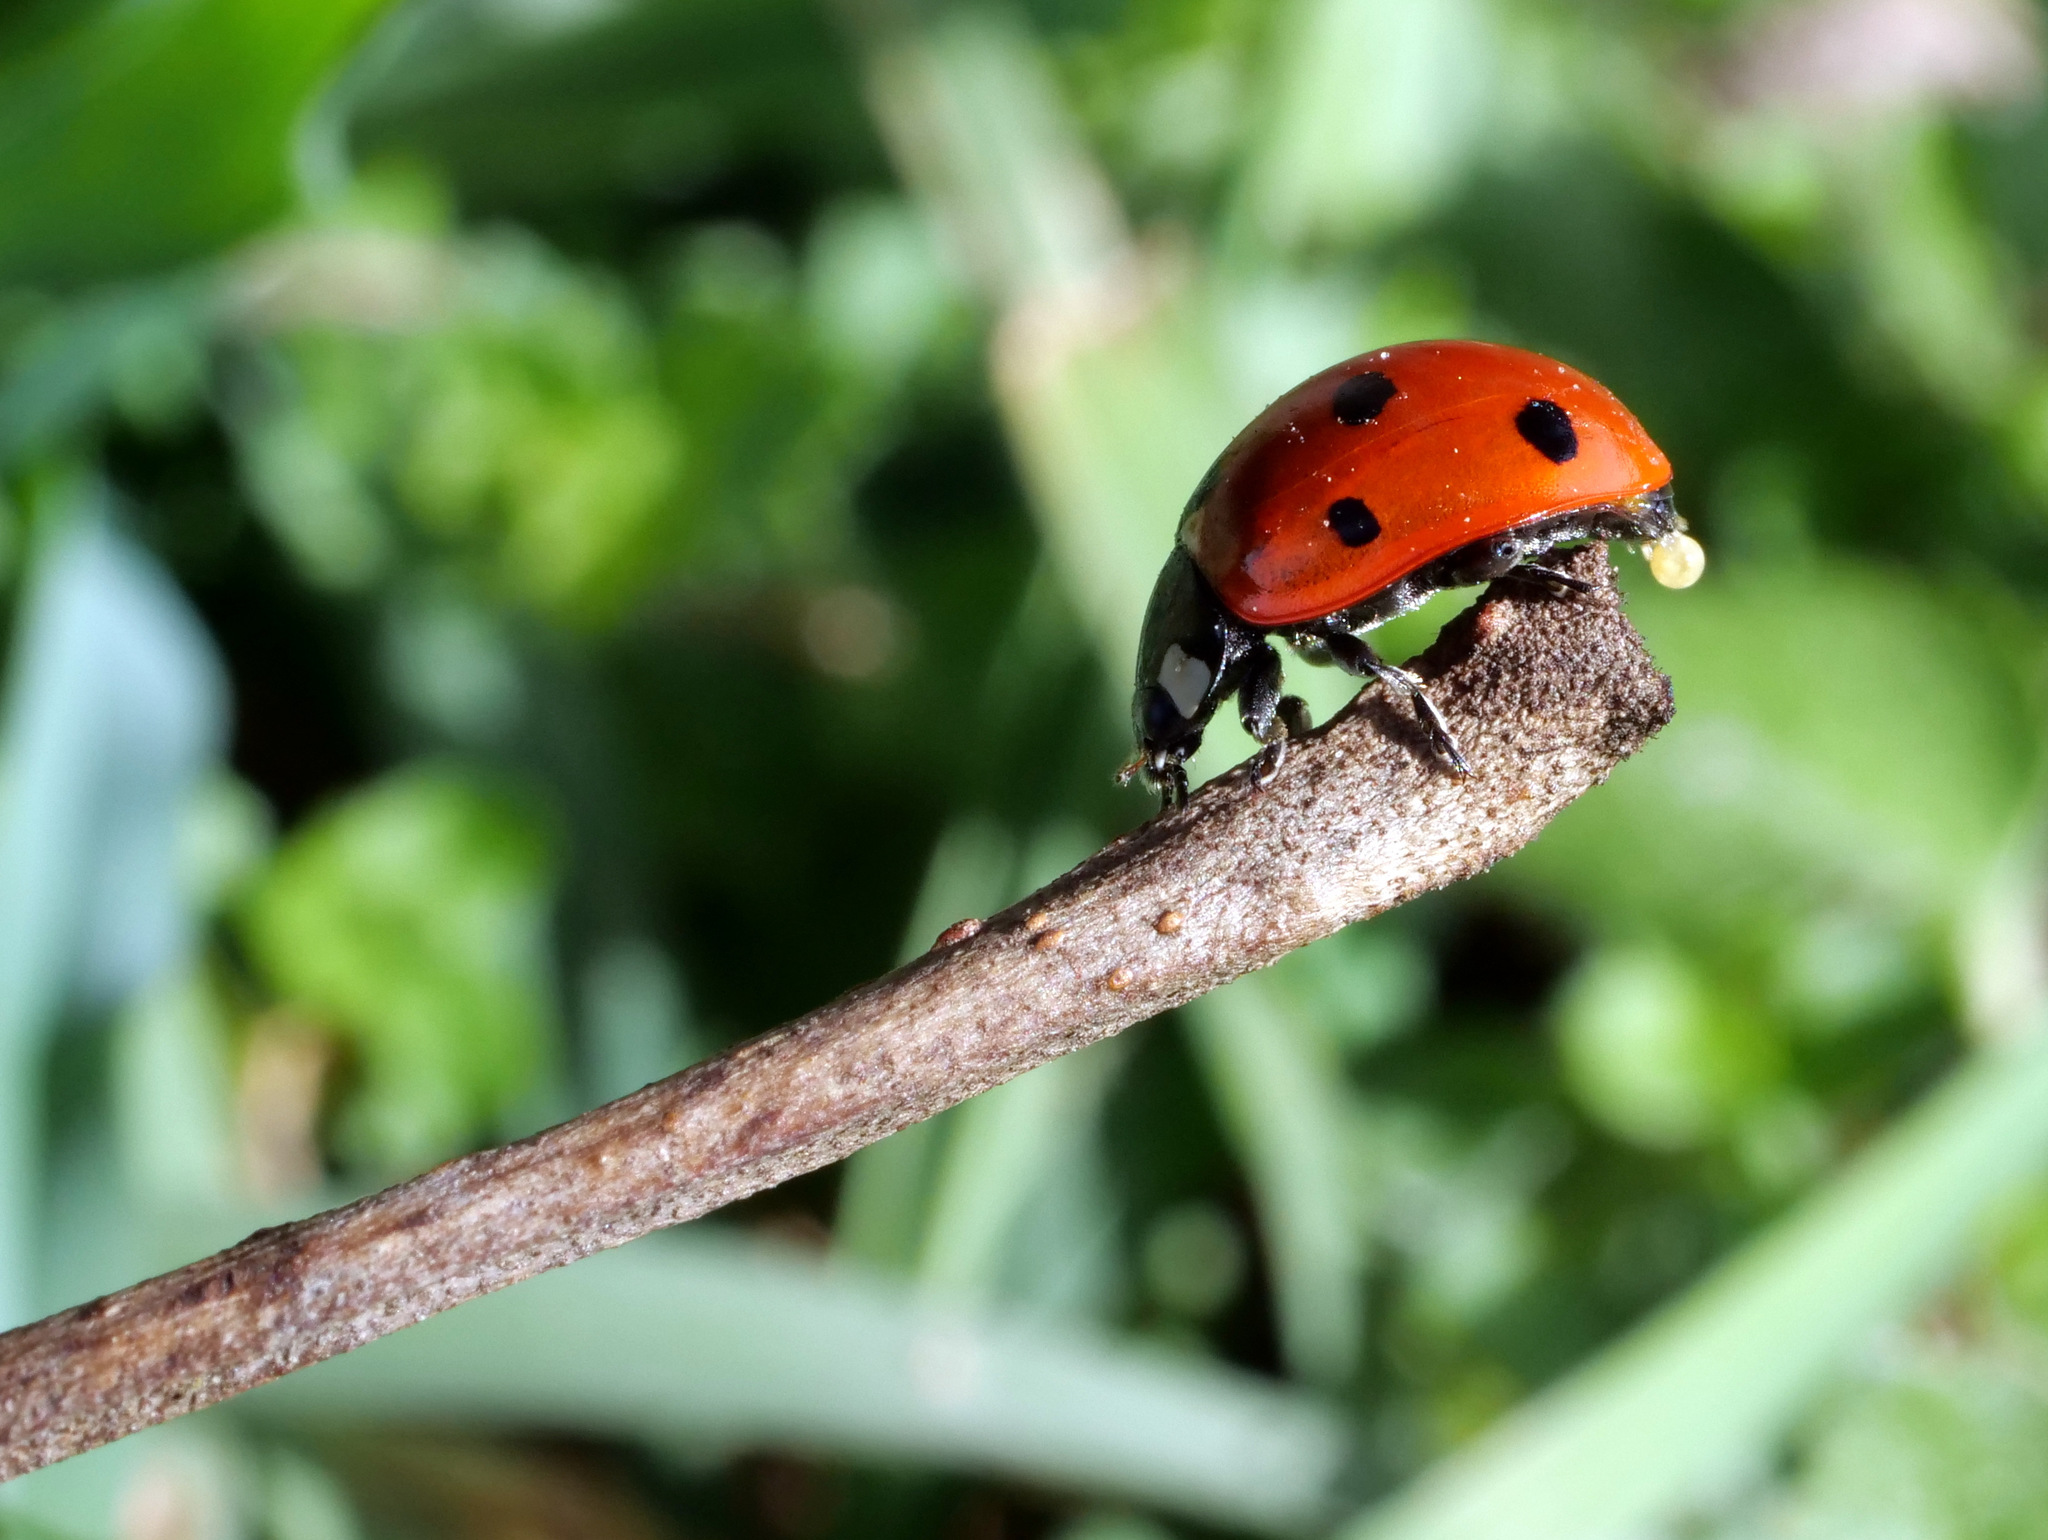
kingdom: Animalia
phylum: Arthropoda
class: Insecta
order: Coleoptera
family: Coccinellidae
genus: Coccinella
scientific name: Coccinella septempunctata
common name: Sevenspotted lady beetle
